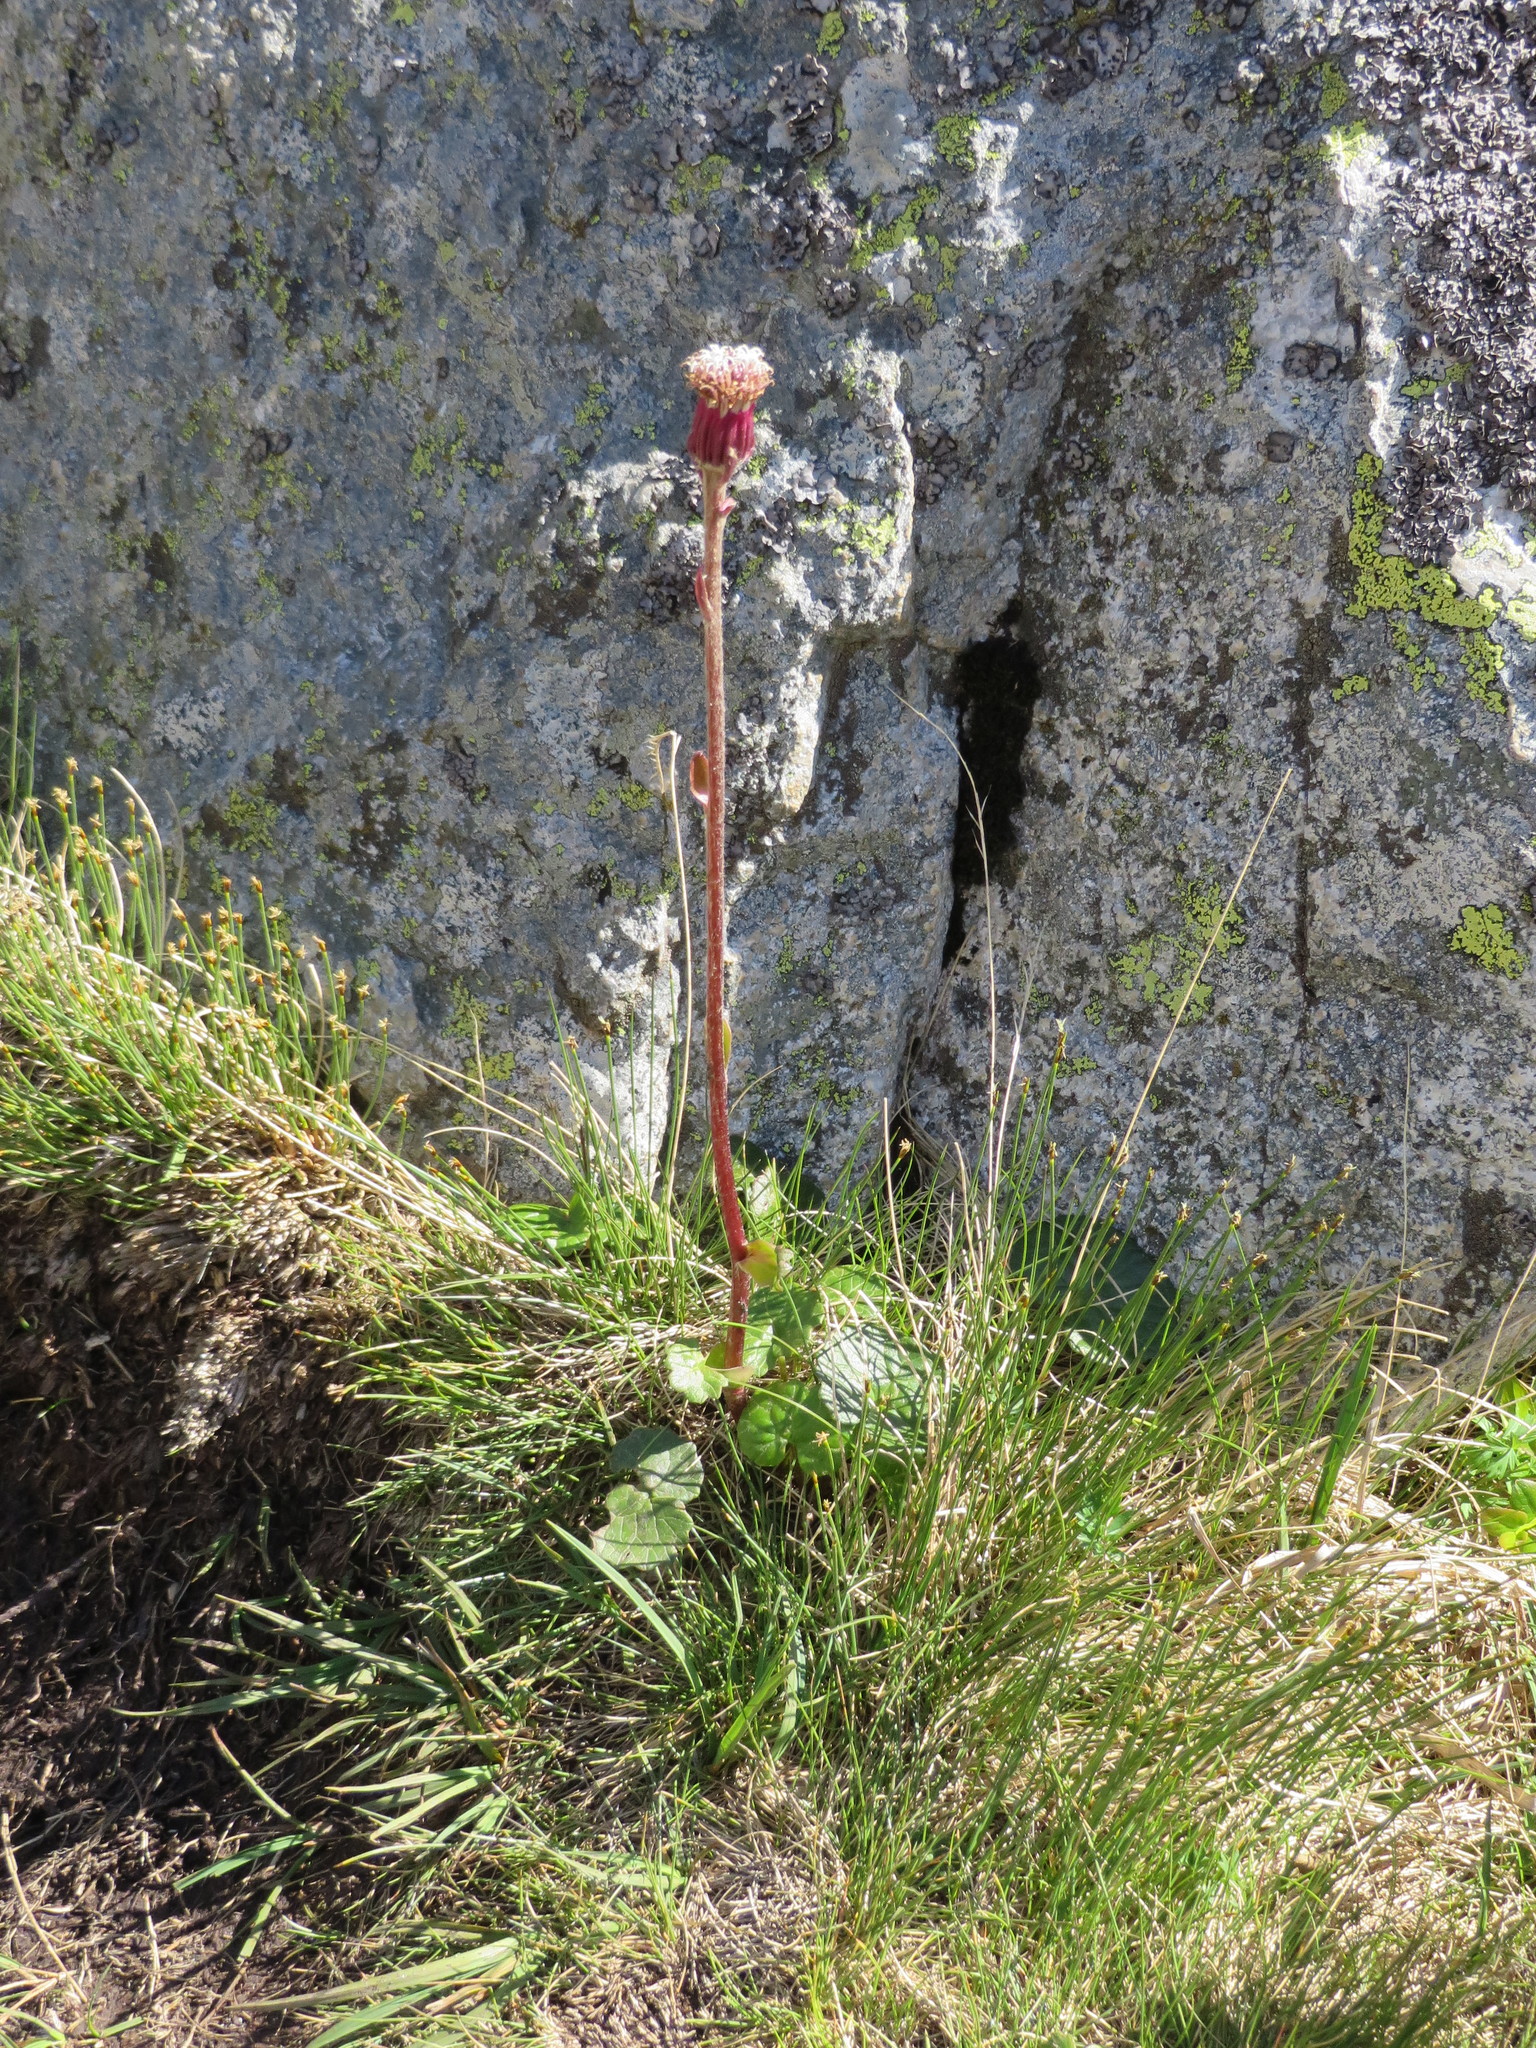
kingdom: Plantae
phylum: Tracheophyta
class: Magnoliopsida
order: Asterales
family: Asteraceae
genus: Homogyne
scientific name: Homogyne alpina
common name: Purple colt's-foot
